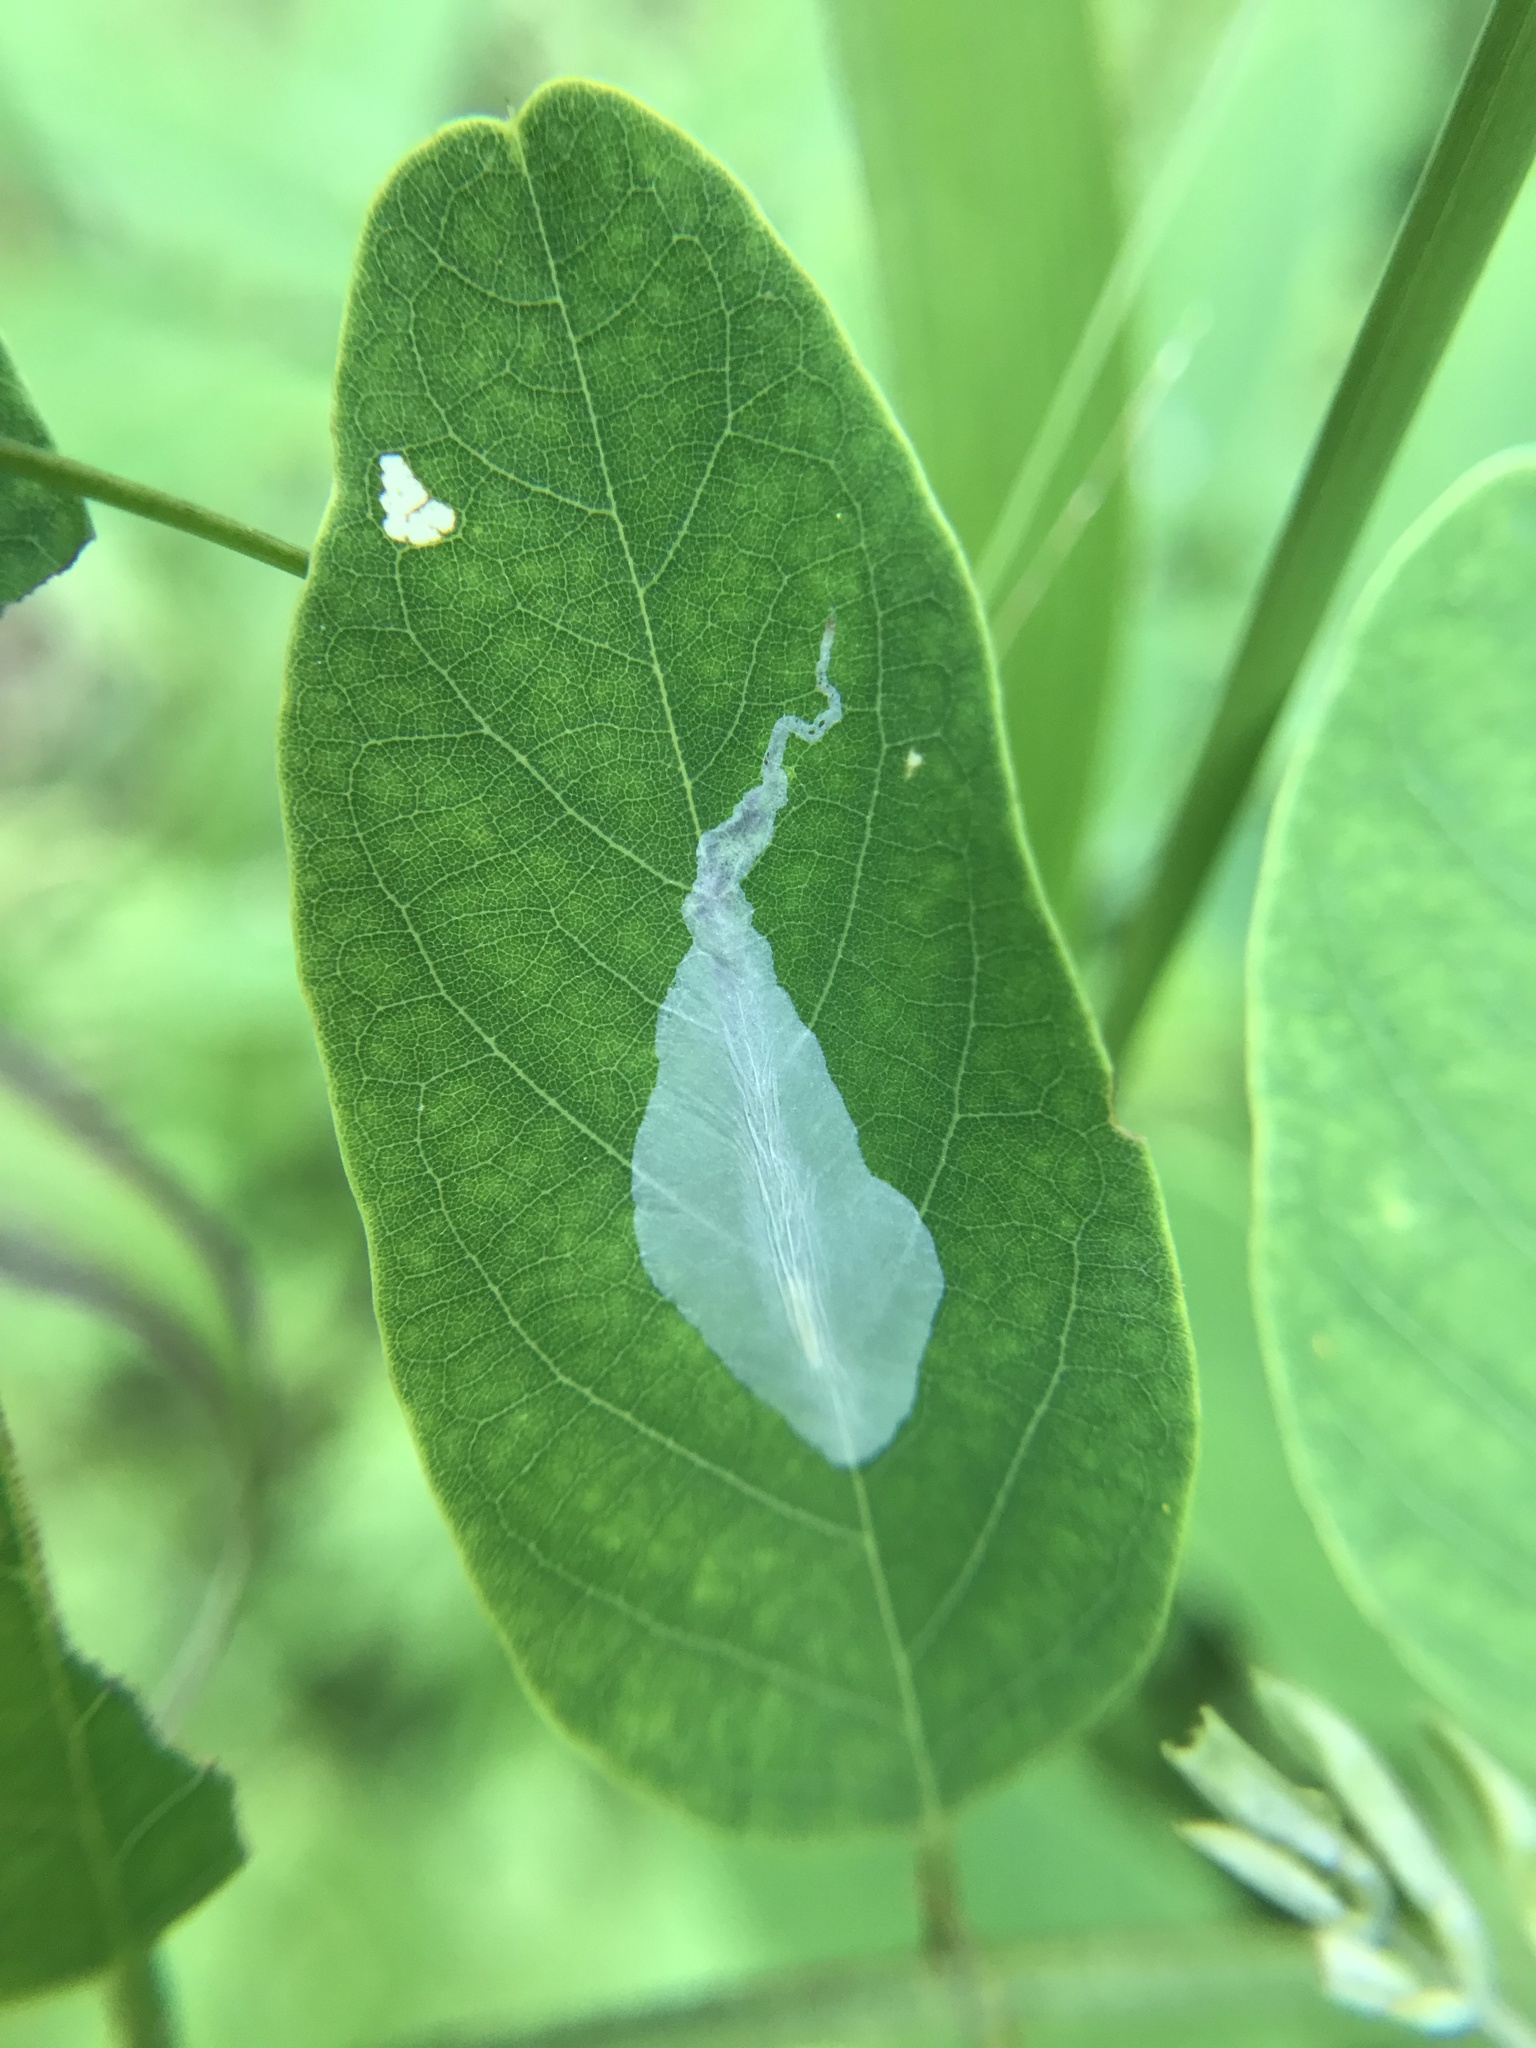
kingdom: Animalia
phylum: Arthropoda
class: Insecta
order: Lepidoptera
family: Gracillariidae
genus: Macrosaccus
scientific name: Macrosaccus robiniella
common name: Leaf blotch miner moth
